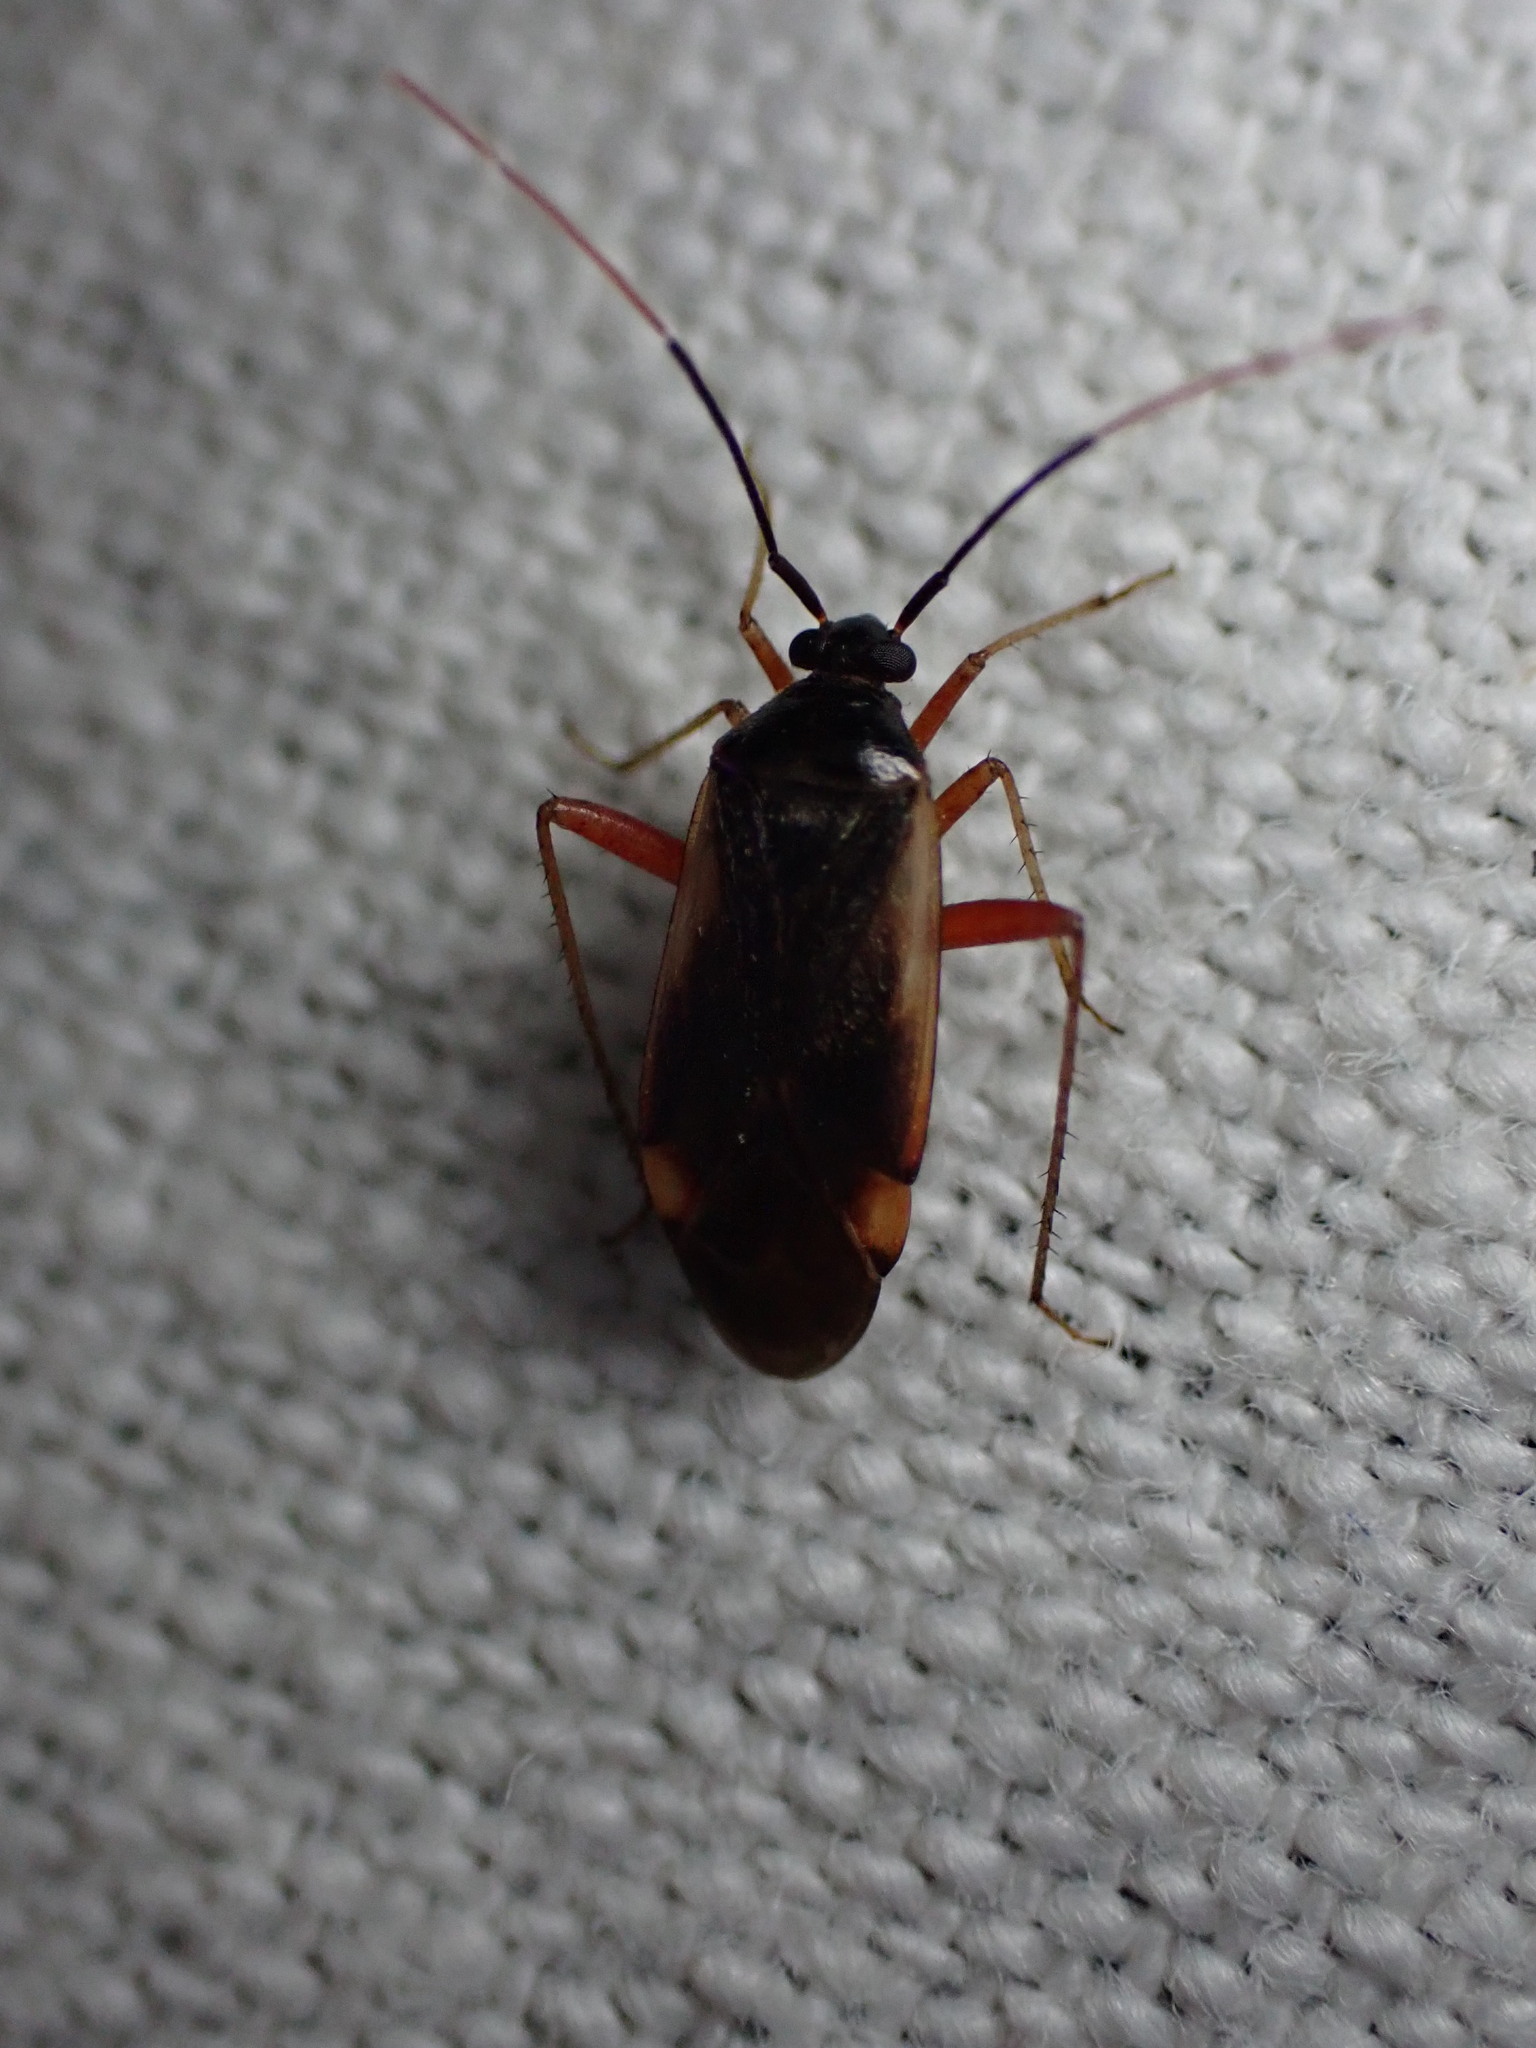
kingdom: Animalia
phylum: Arthropoda
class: Insecta
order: Hemiptera
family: Miridae
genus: Adelphocoris
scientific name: Adelphocoris seticornis
